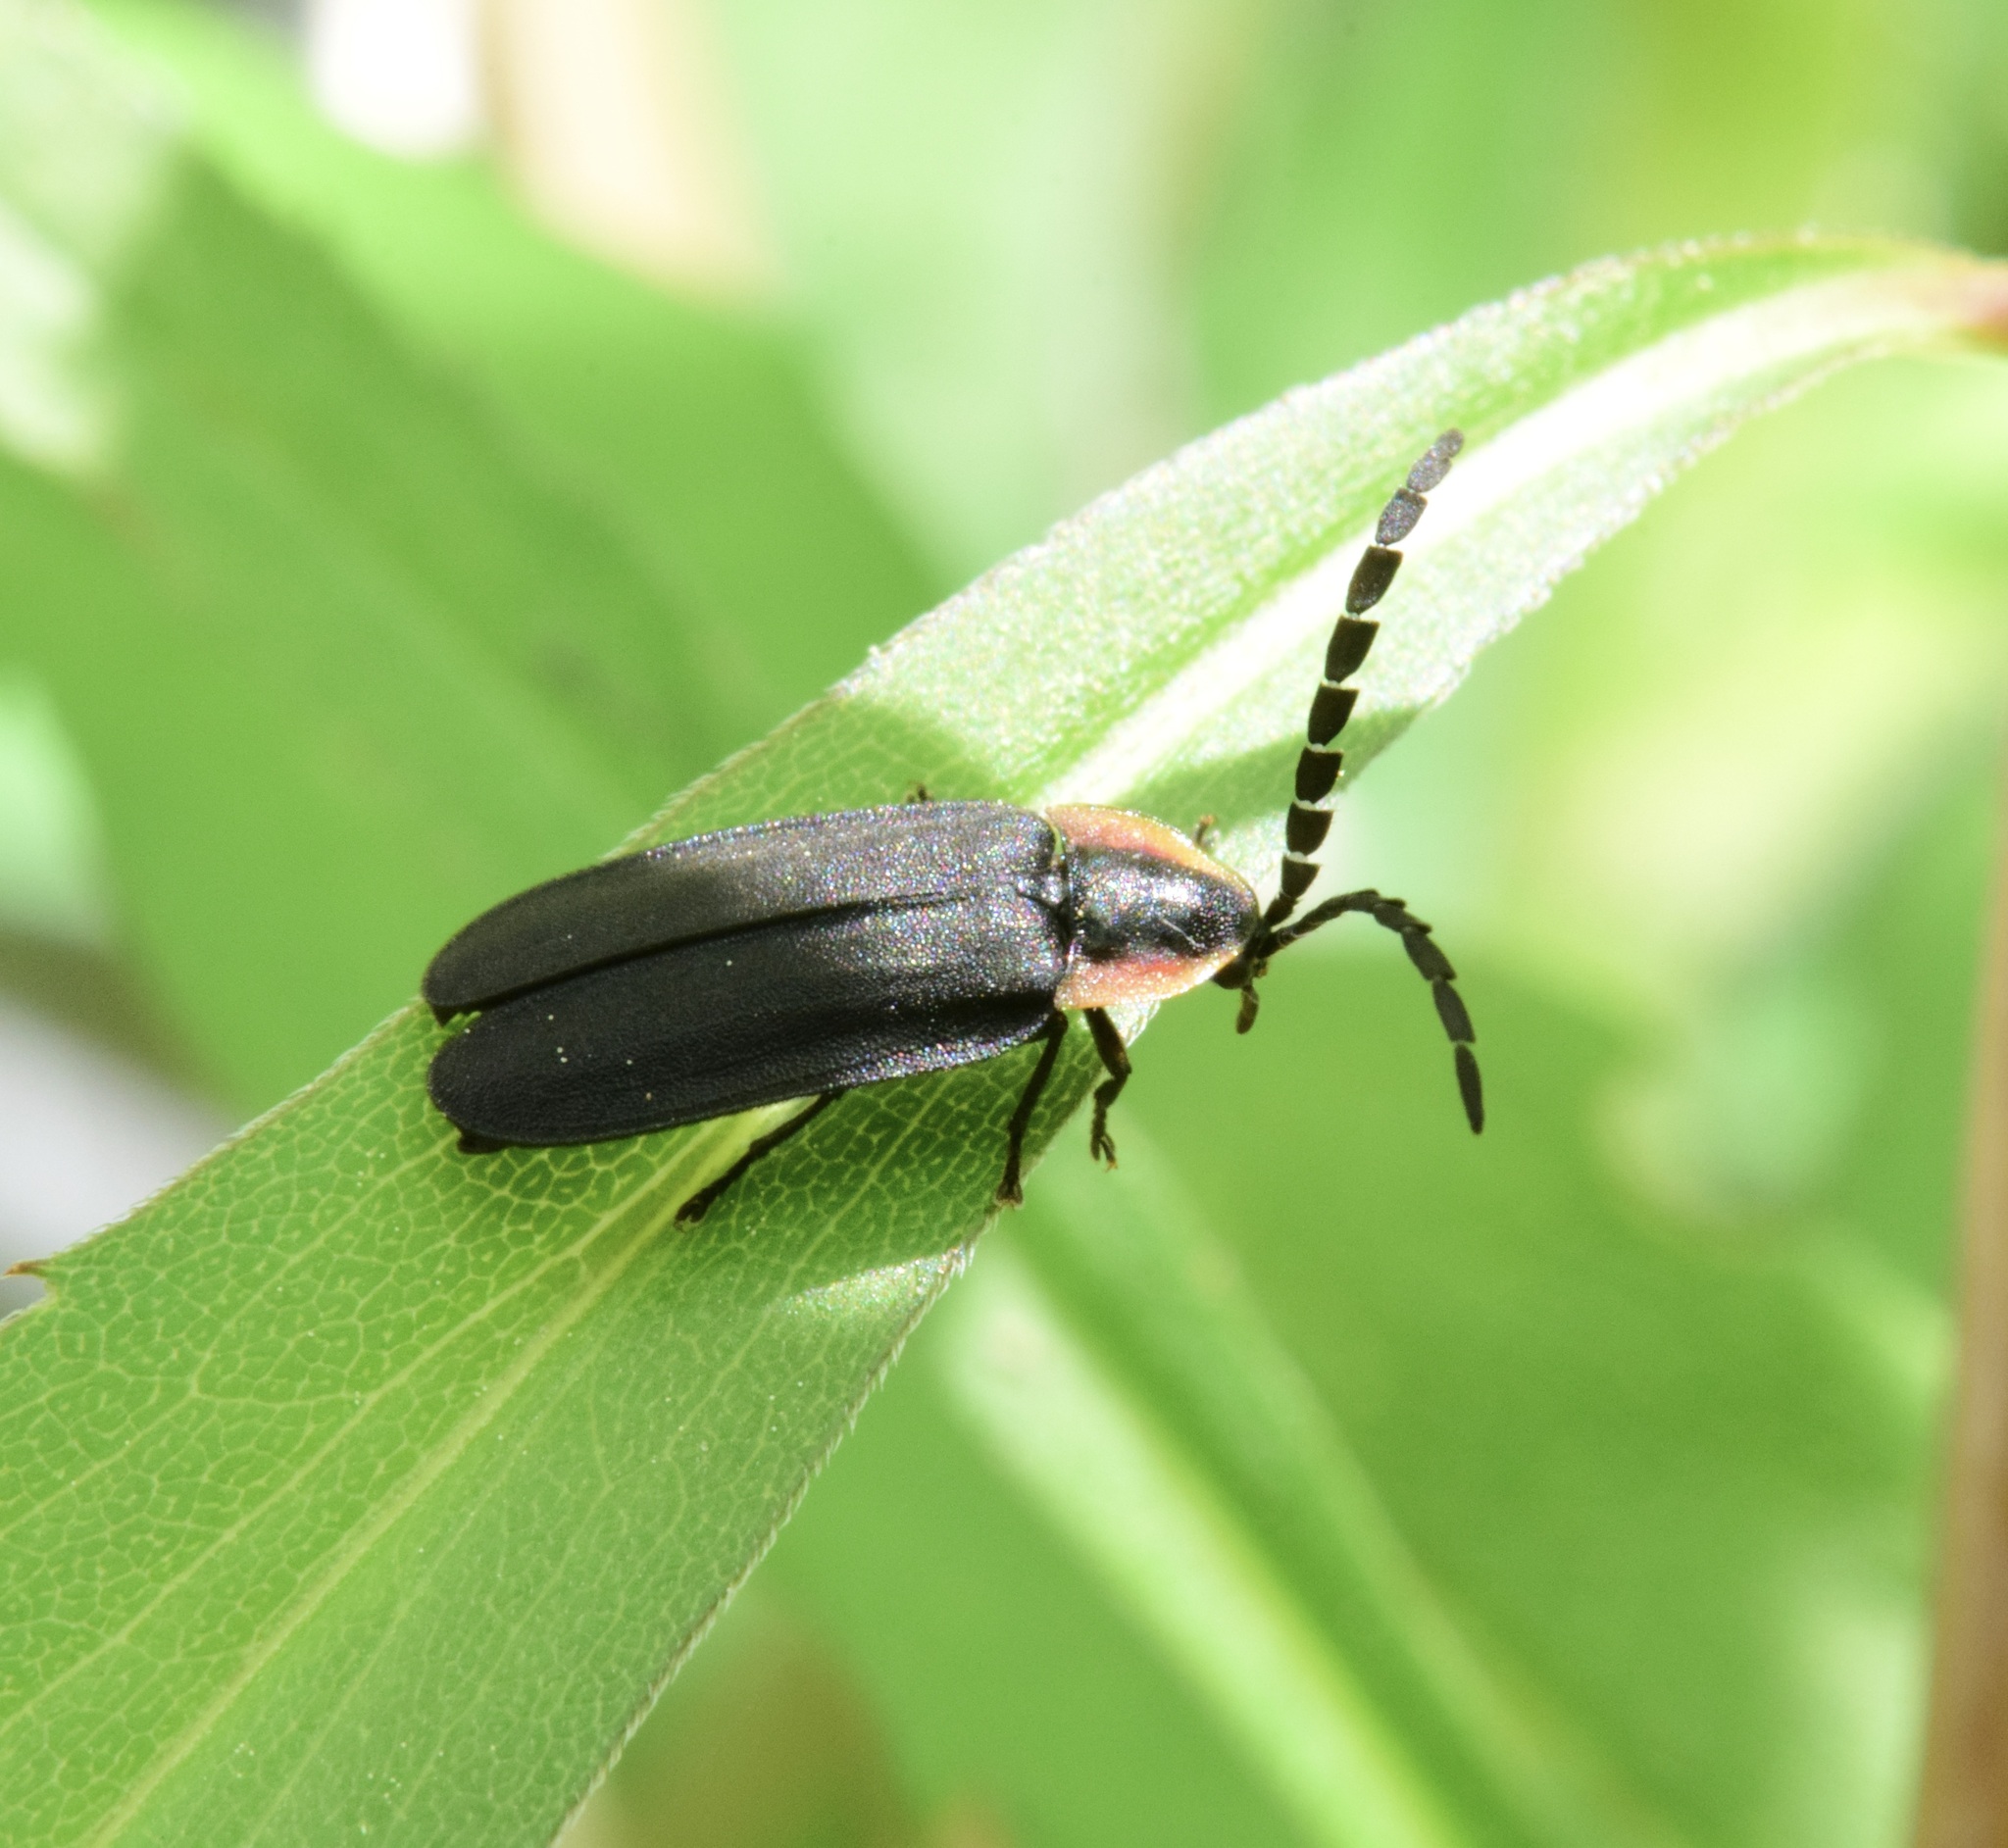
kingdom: Animalia
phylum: Arthropoda
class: Insecta
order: Coleoptera
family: Lampyridae
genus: Lucidota
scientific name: Lucidota atra
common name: Black firefly
